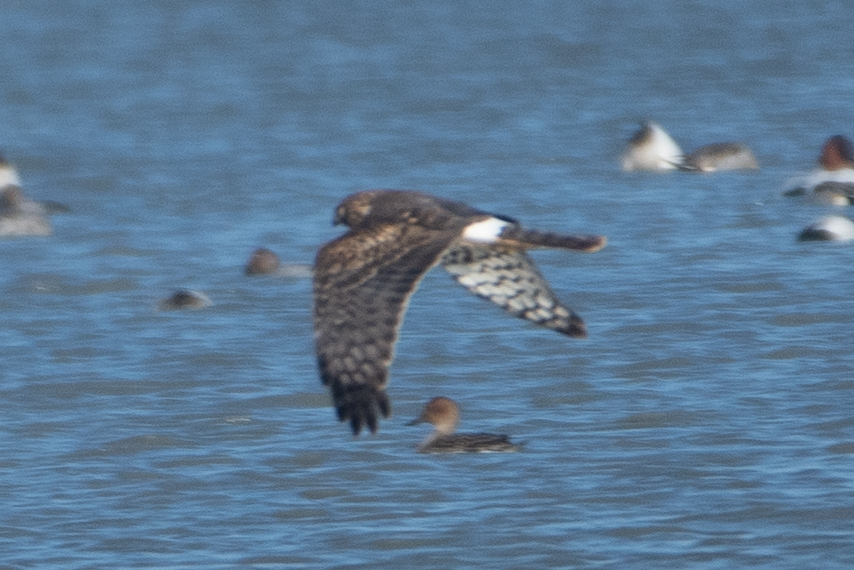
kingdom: Animalia
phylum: Chordata
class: Aves
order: Accipitriformes
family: Accipitridae
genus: Circus
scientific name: Circus cyaneus
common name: Hen harrier
